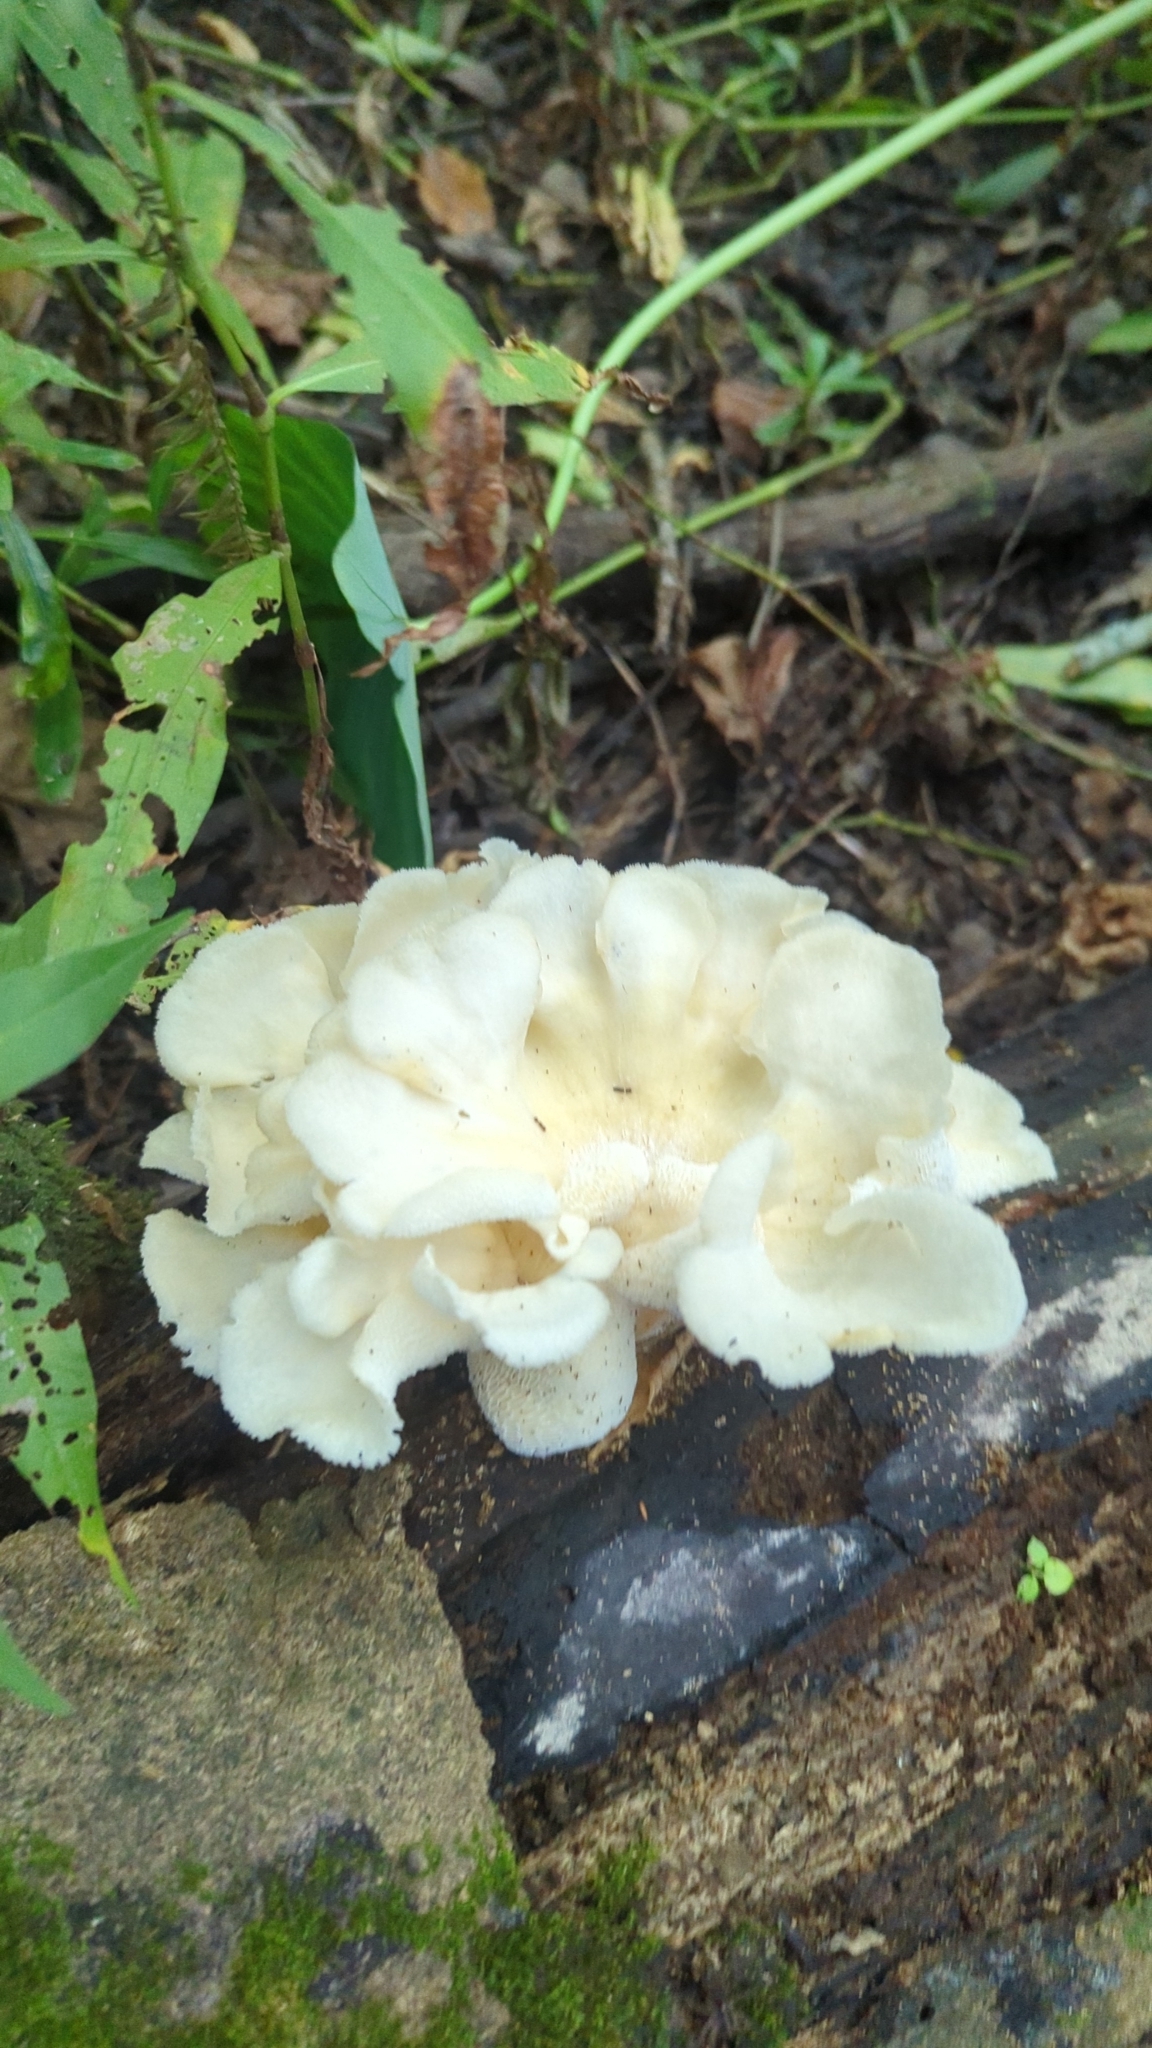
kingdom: Fungi
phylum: Basidiomycota
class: Agaricomycetes
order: Polyporales
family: Polyporaceae
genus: Favolus
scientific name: Favolus tenuiculus
